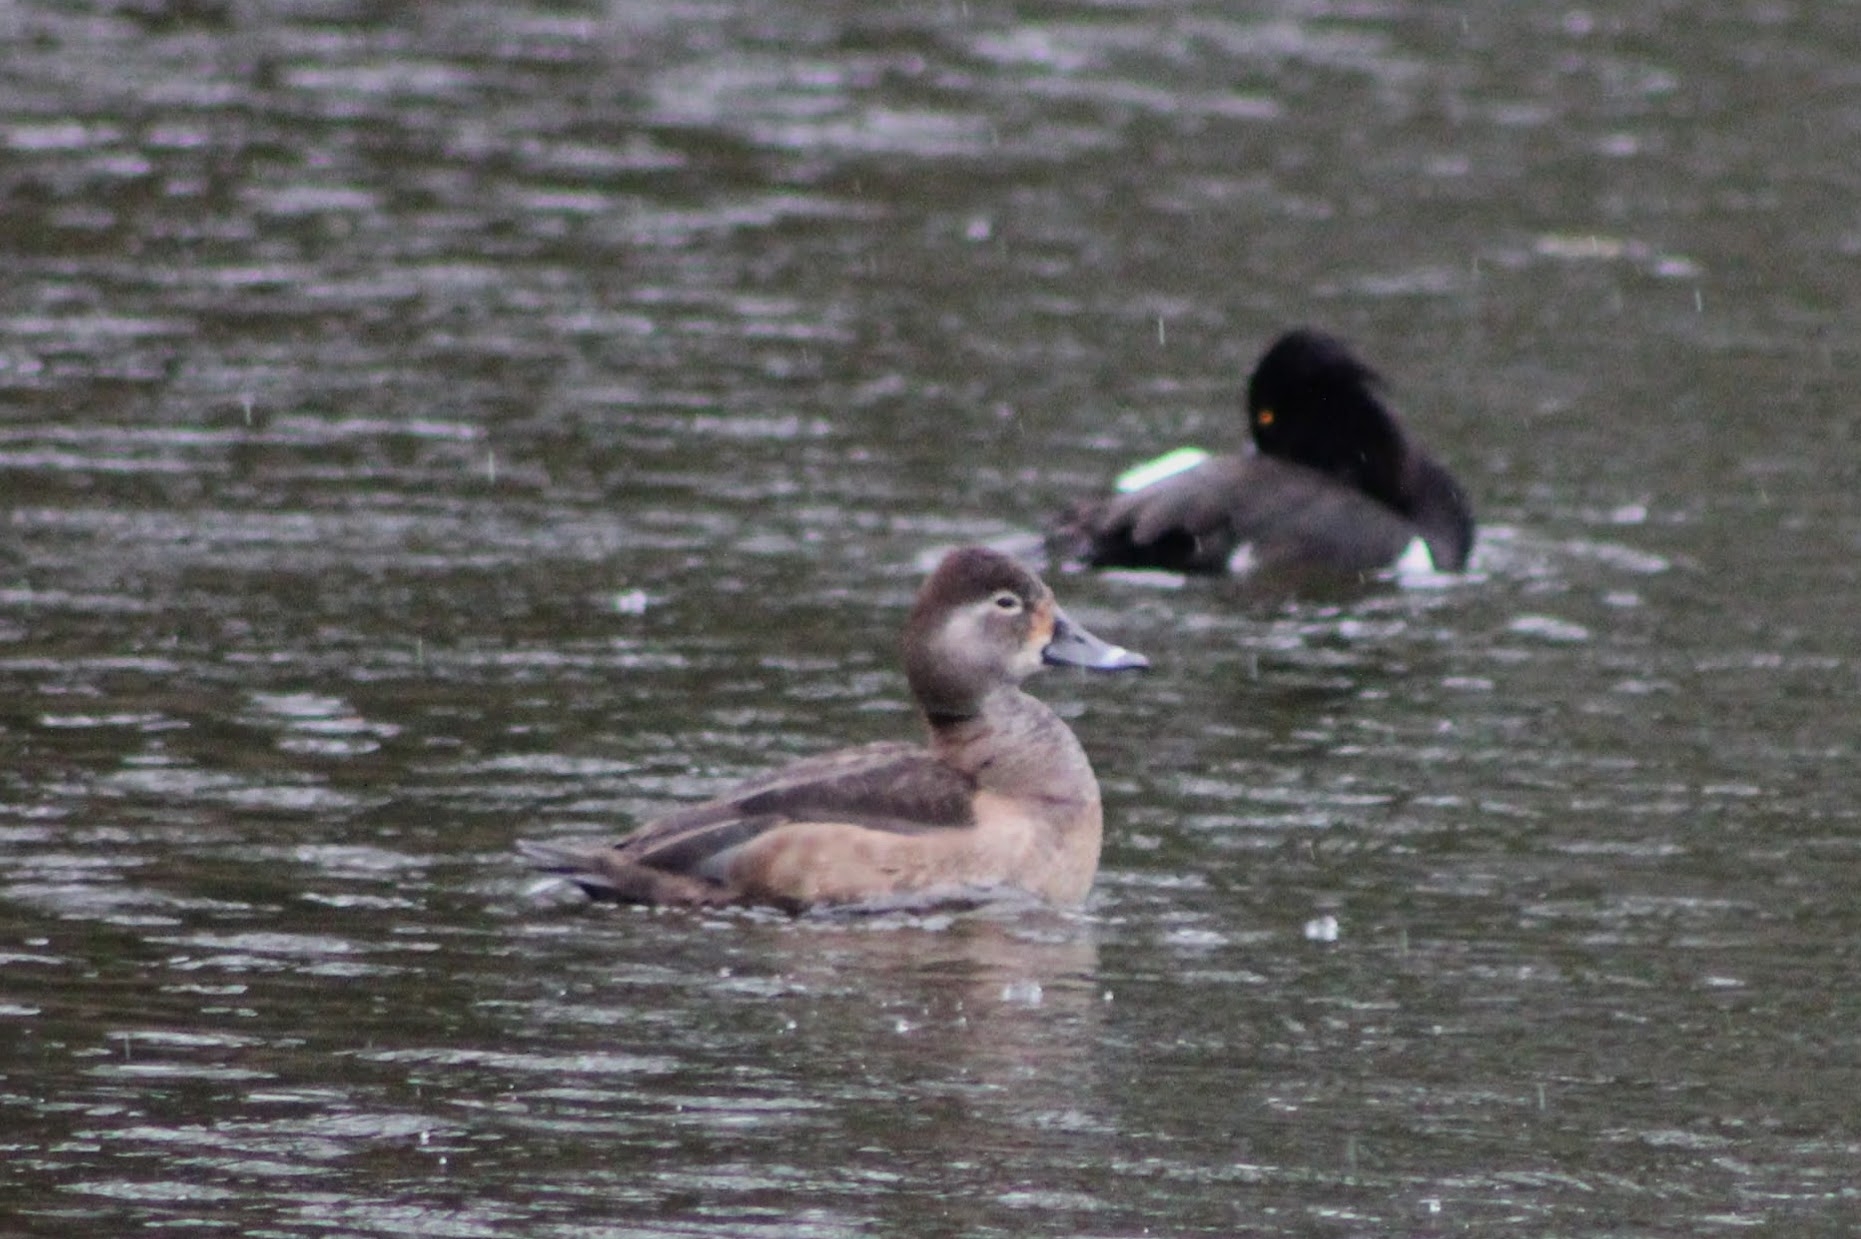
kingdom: Animalia
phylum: Chordata
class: Aves
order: Anseriformes
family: Anatidae
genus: Aythya
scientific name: Aythya collaris
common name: Ring-necked duck
